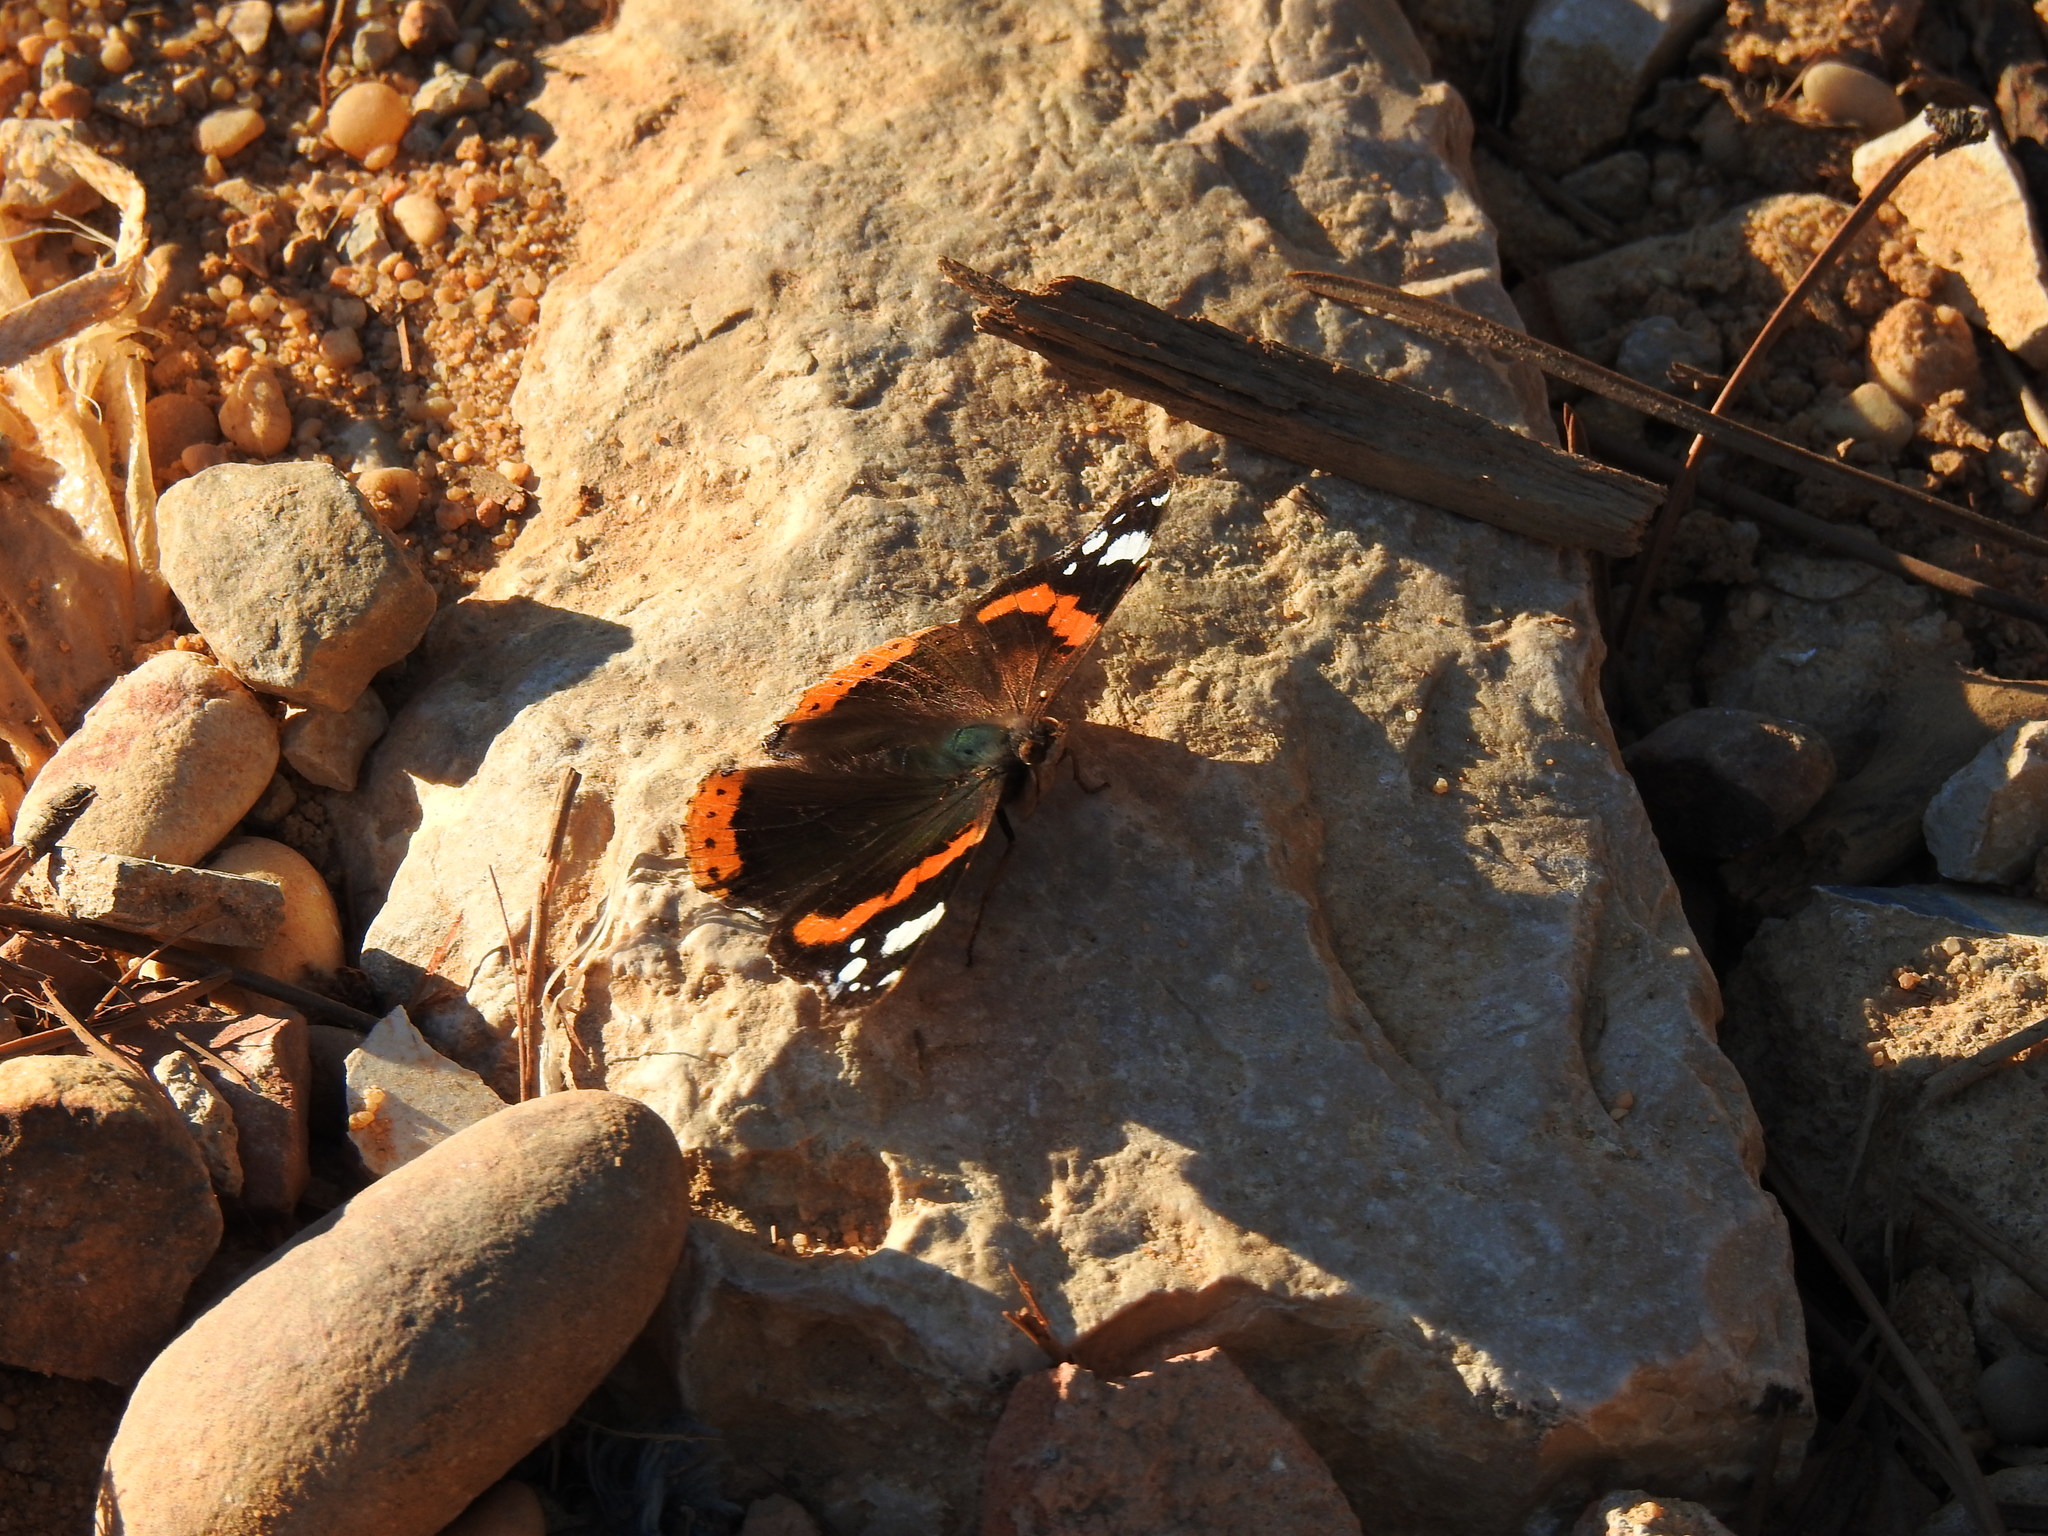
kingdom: Animalia
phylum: Arthropoda
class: Insecta
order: Lepidoptera
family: Nymphalidae
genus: Vanessa
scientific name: Vanessa atalanta
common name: Red admiral
